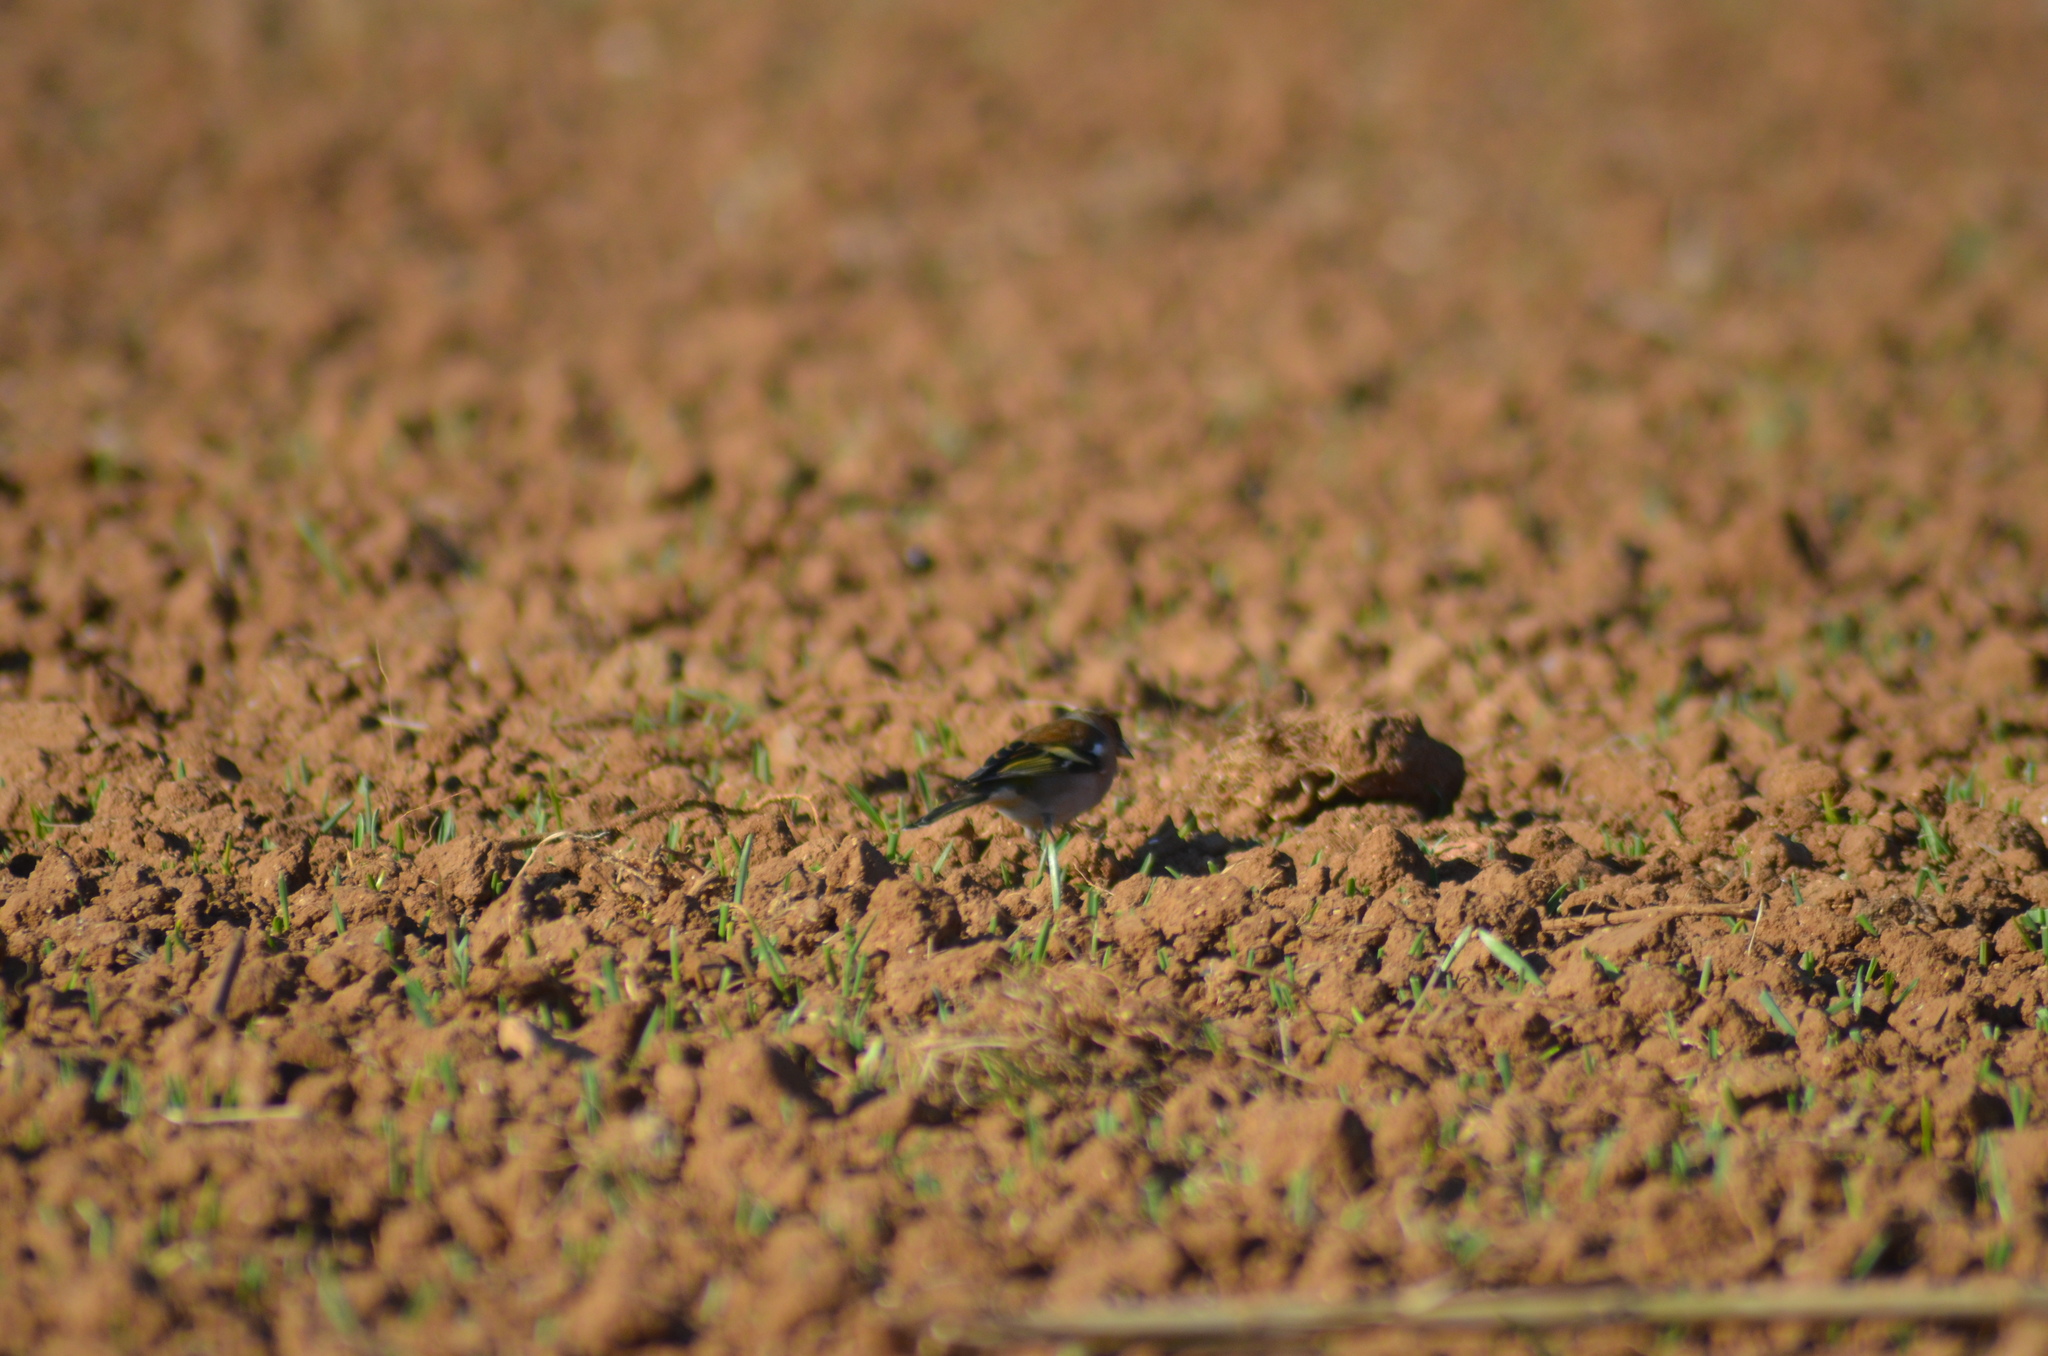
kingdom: Animalia
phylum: Chordata
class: Aves
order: Passeriformes
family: Fringillidae
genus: Fringilla
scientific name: Fringilla coelebs
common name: Common chaffinch
